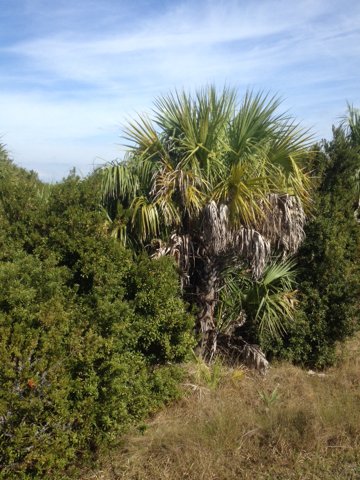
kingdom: Plantae
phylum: Tracheophyta
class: Liliopsida
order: Arecales
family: Arecaceae
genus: Sabal
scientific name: Sabal palmetto
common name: Blue palmetto
